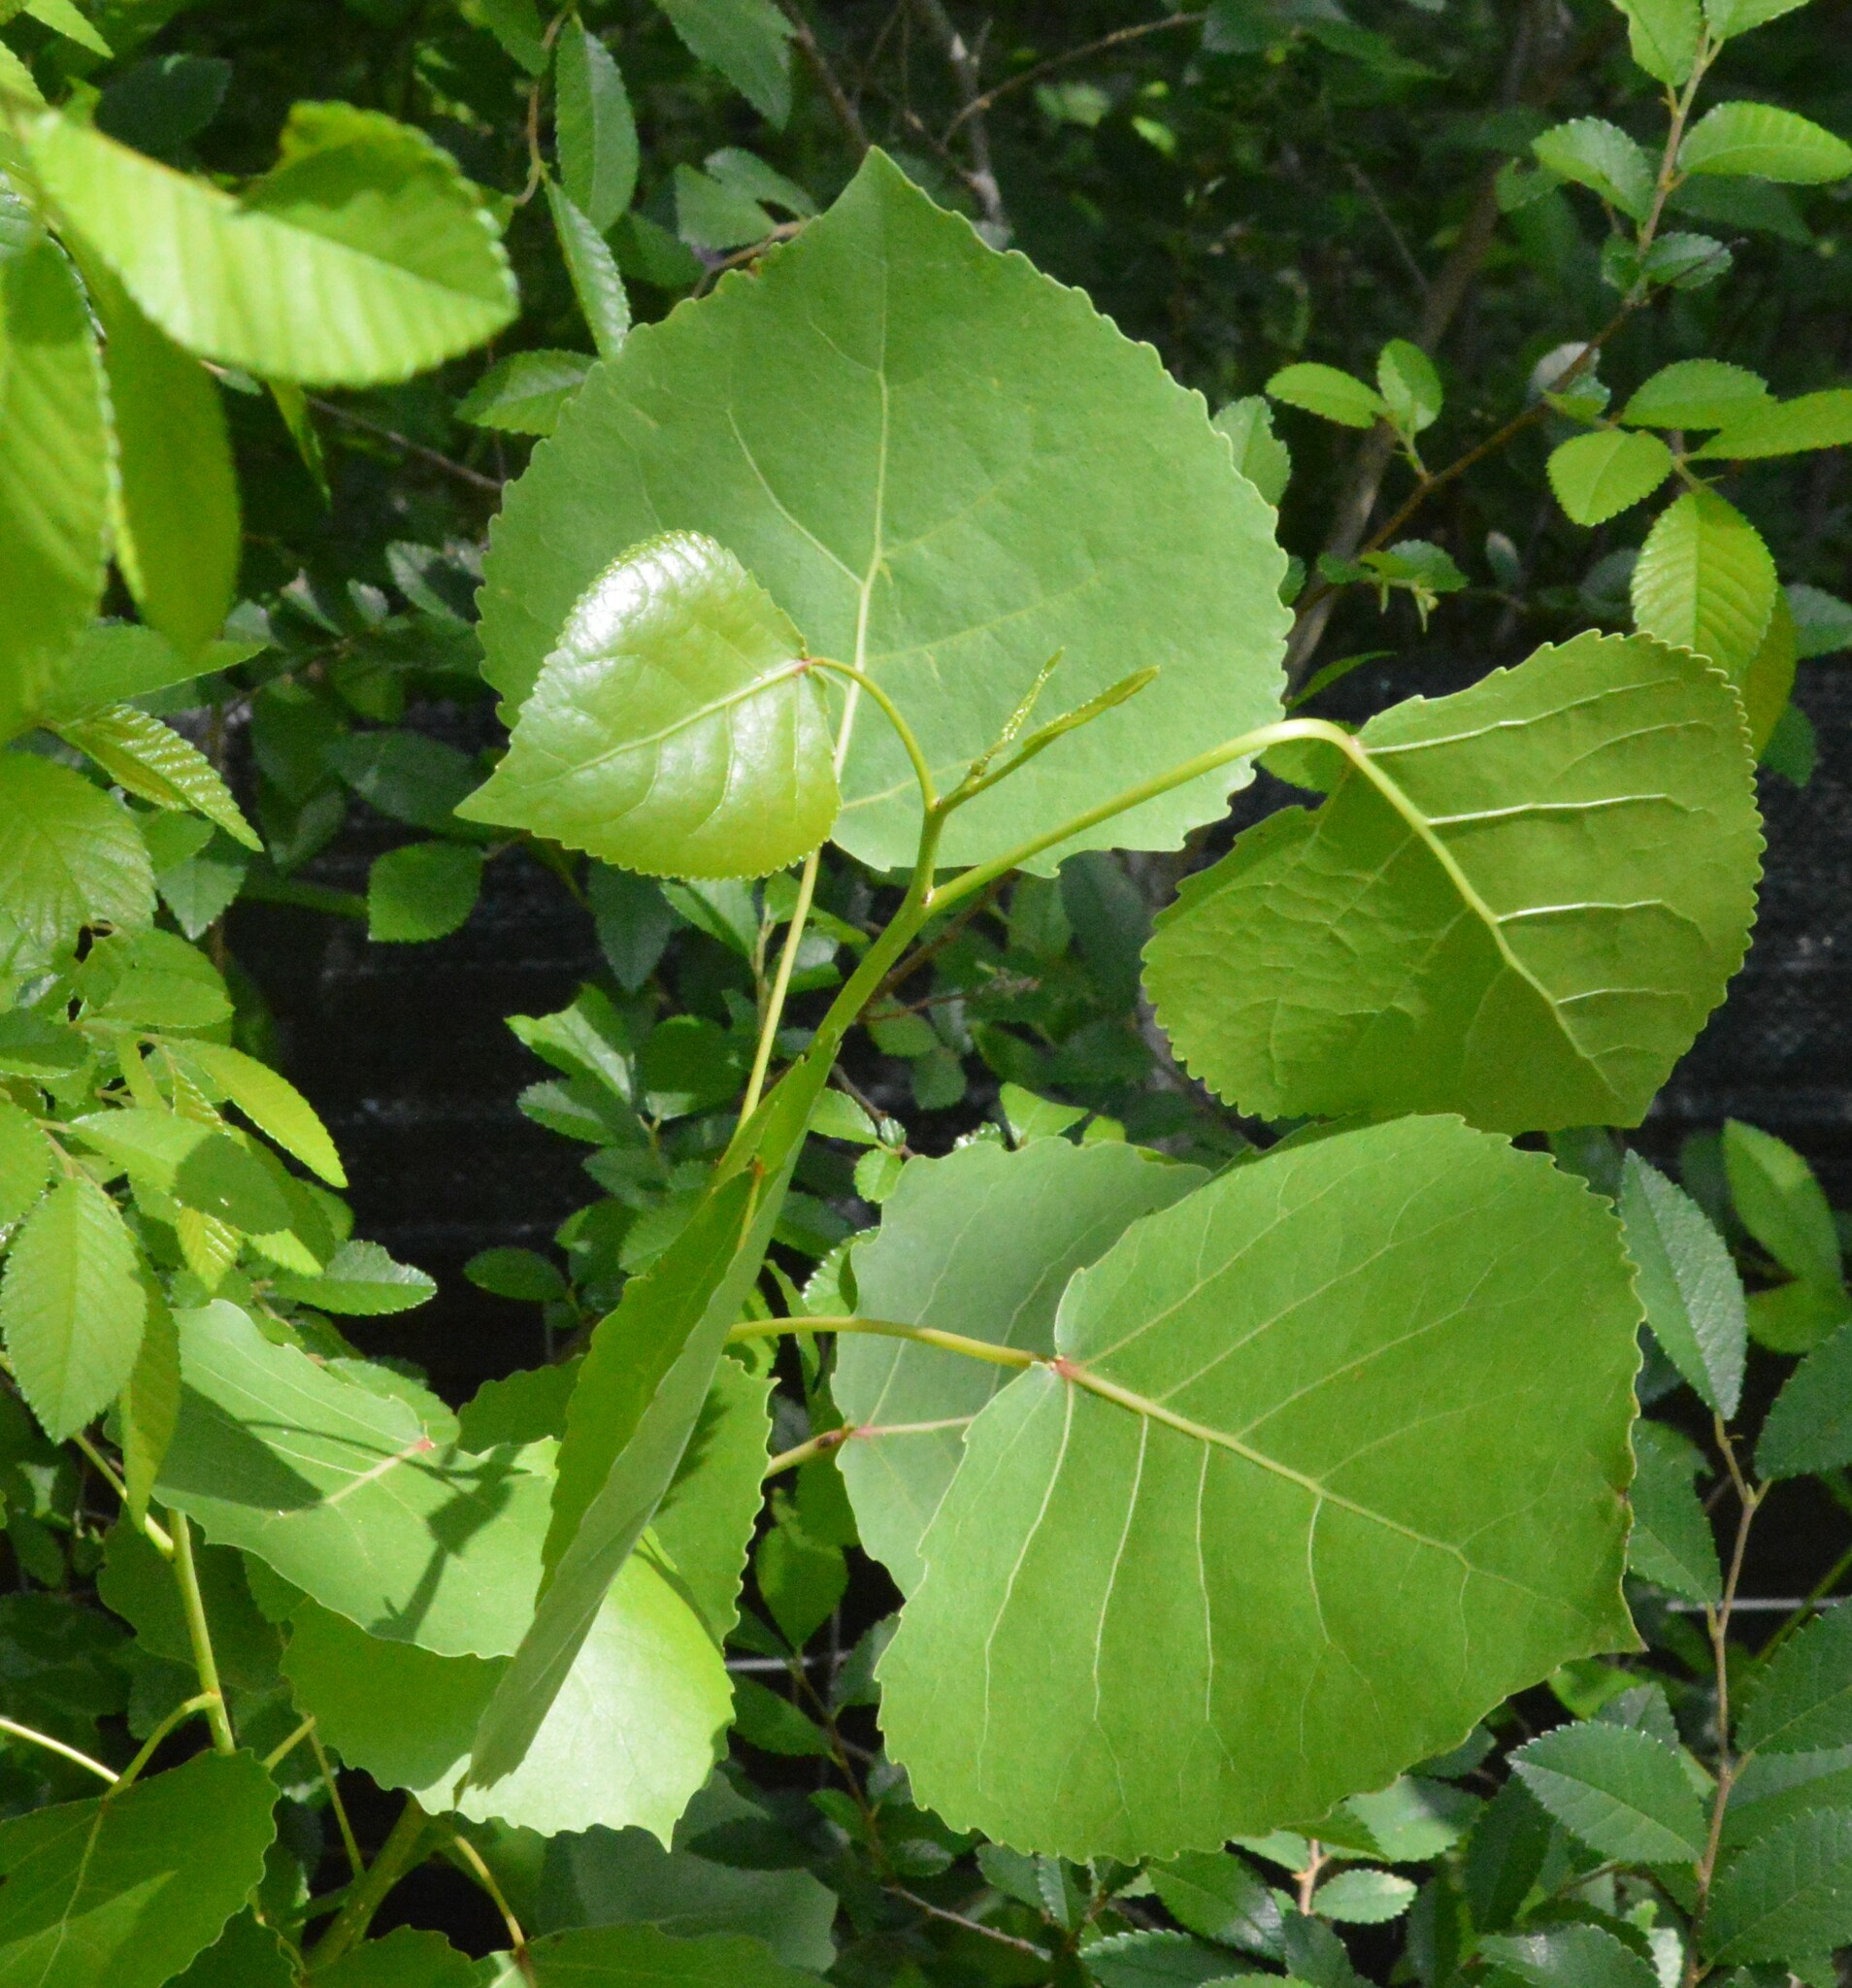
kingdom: Plantae
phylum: Tracheophyta
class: Magnoliopsida
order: Malpighiales
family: Salicaceae
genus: Populus
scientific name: Populus deltoides
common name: Eastern cottonwood
